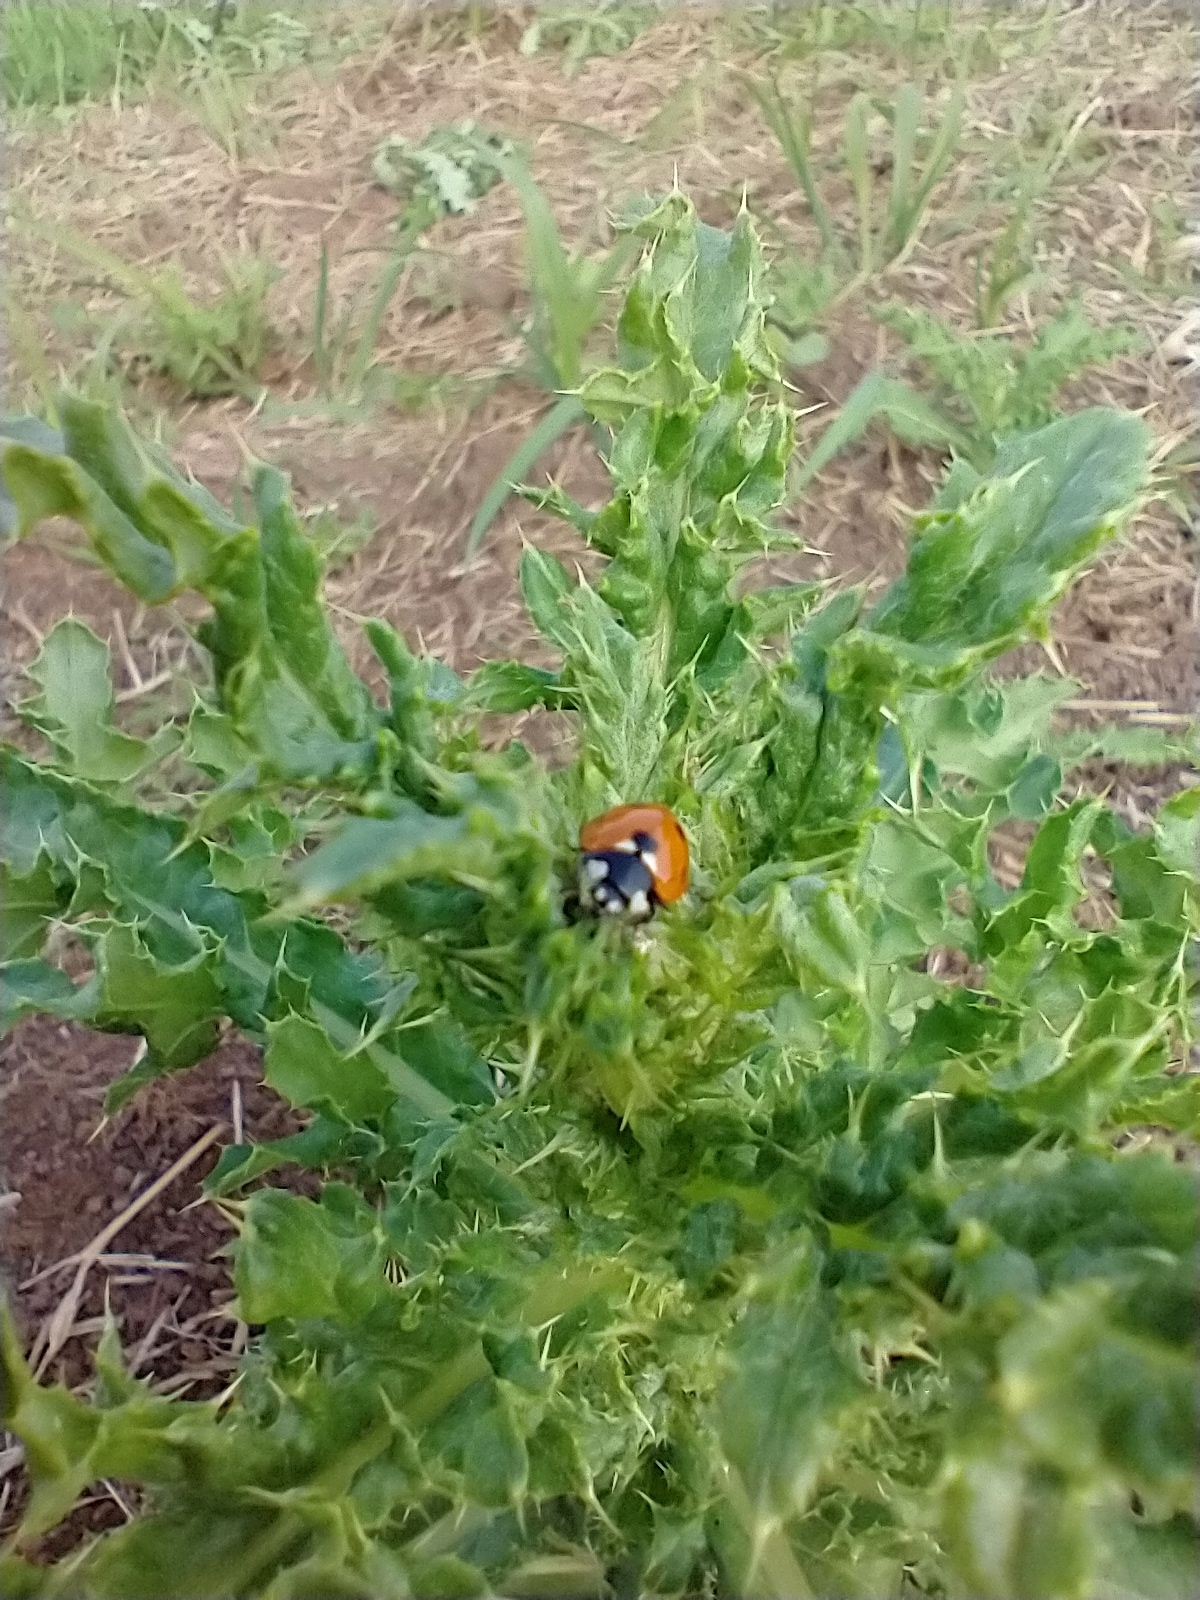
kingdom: Animalia
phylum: Arthropoda
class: Insecta
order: Coleoptera
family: Coccinellidae
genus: Coccinella
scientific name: Coccinella septempunctata
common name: Sevenspotted lady beetle
